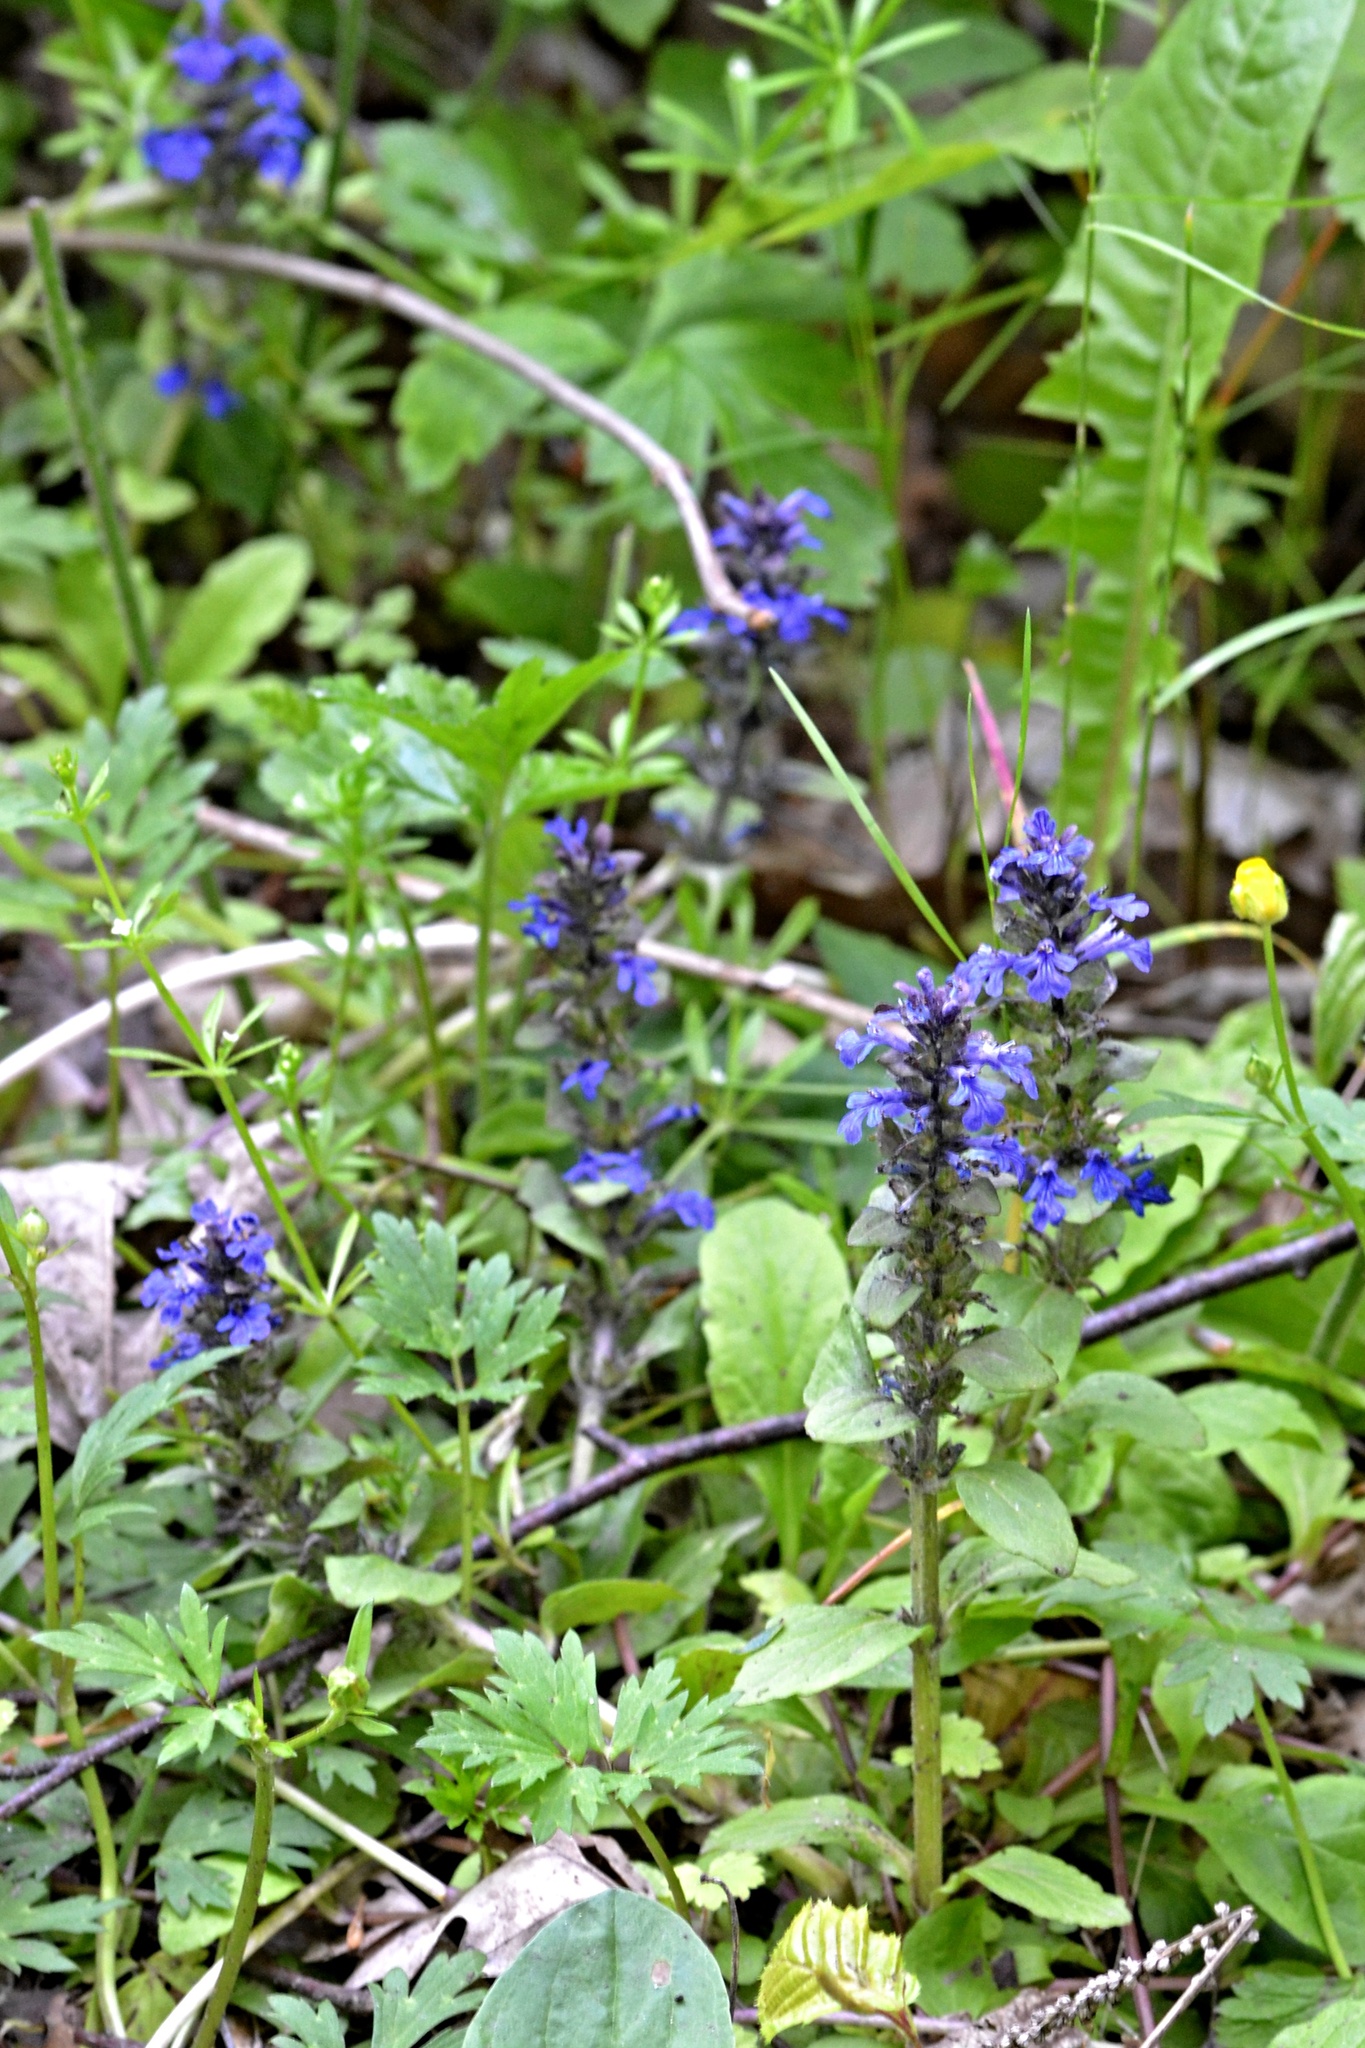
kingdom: Plantae
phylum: Tracheophyta
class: Magnoliopsida
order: Lamiales
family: Lamiaceae
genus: Ajuga
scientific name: Ajuga reptans
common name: Bugle
